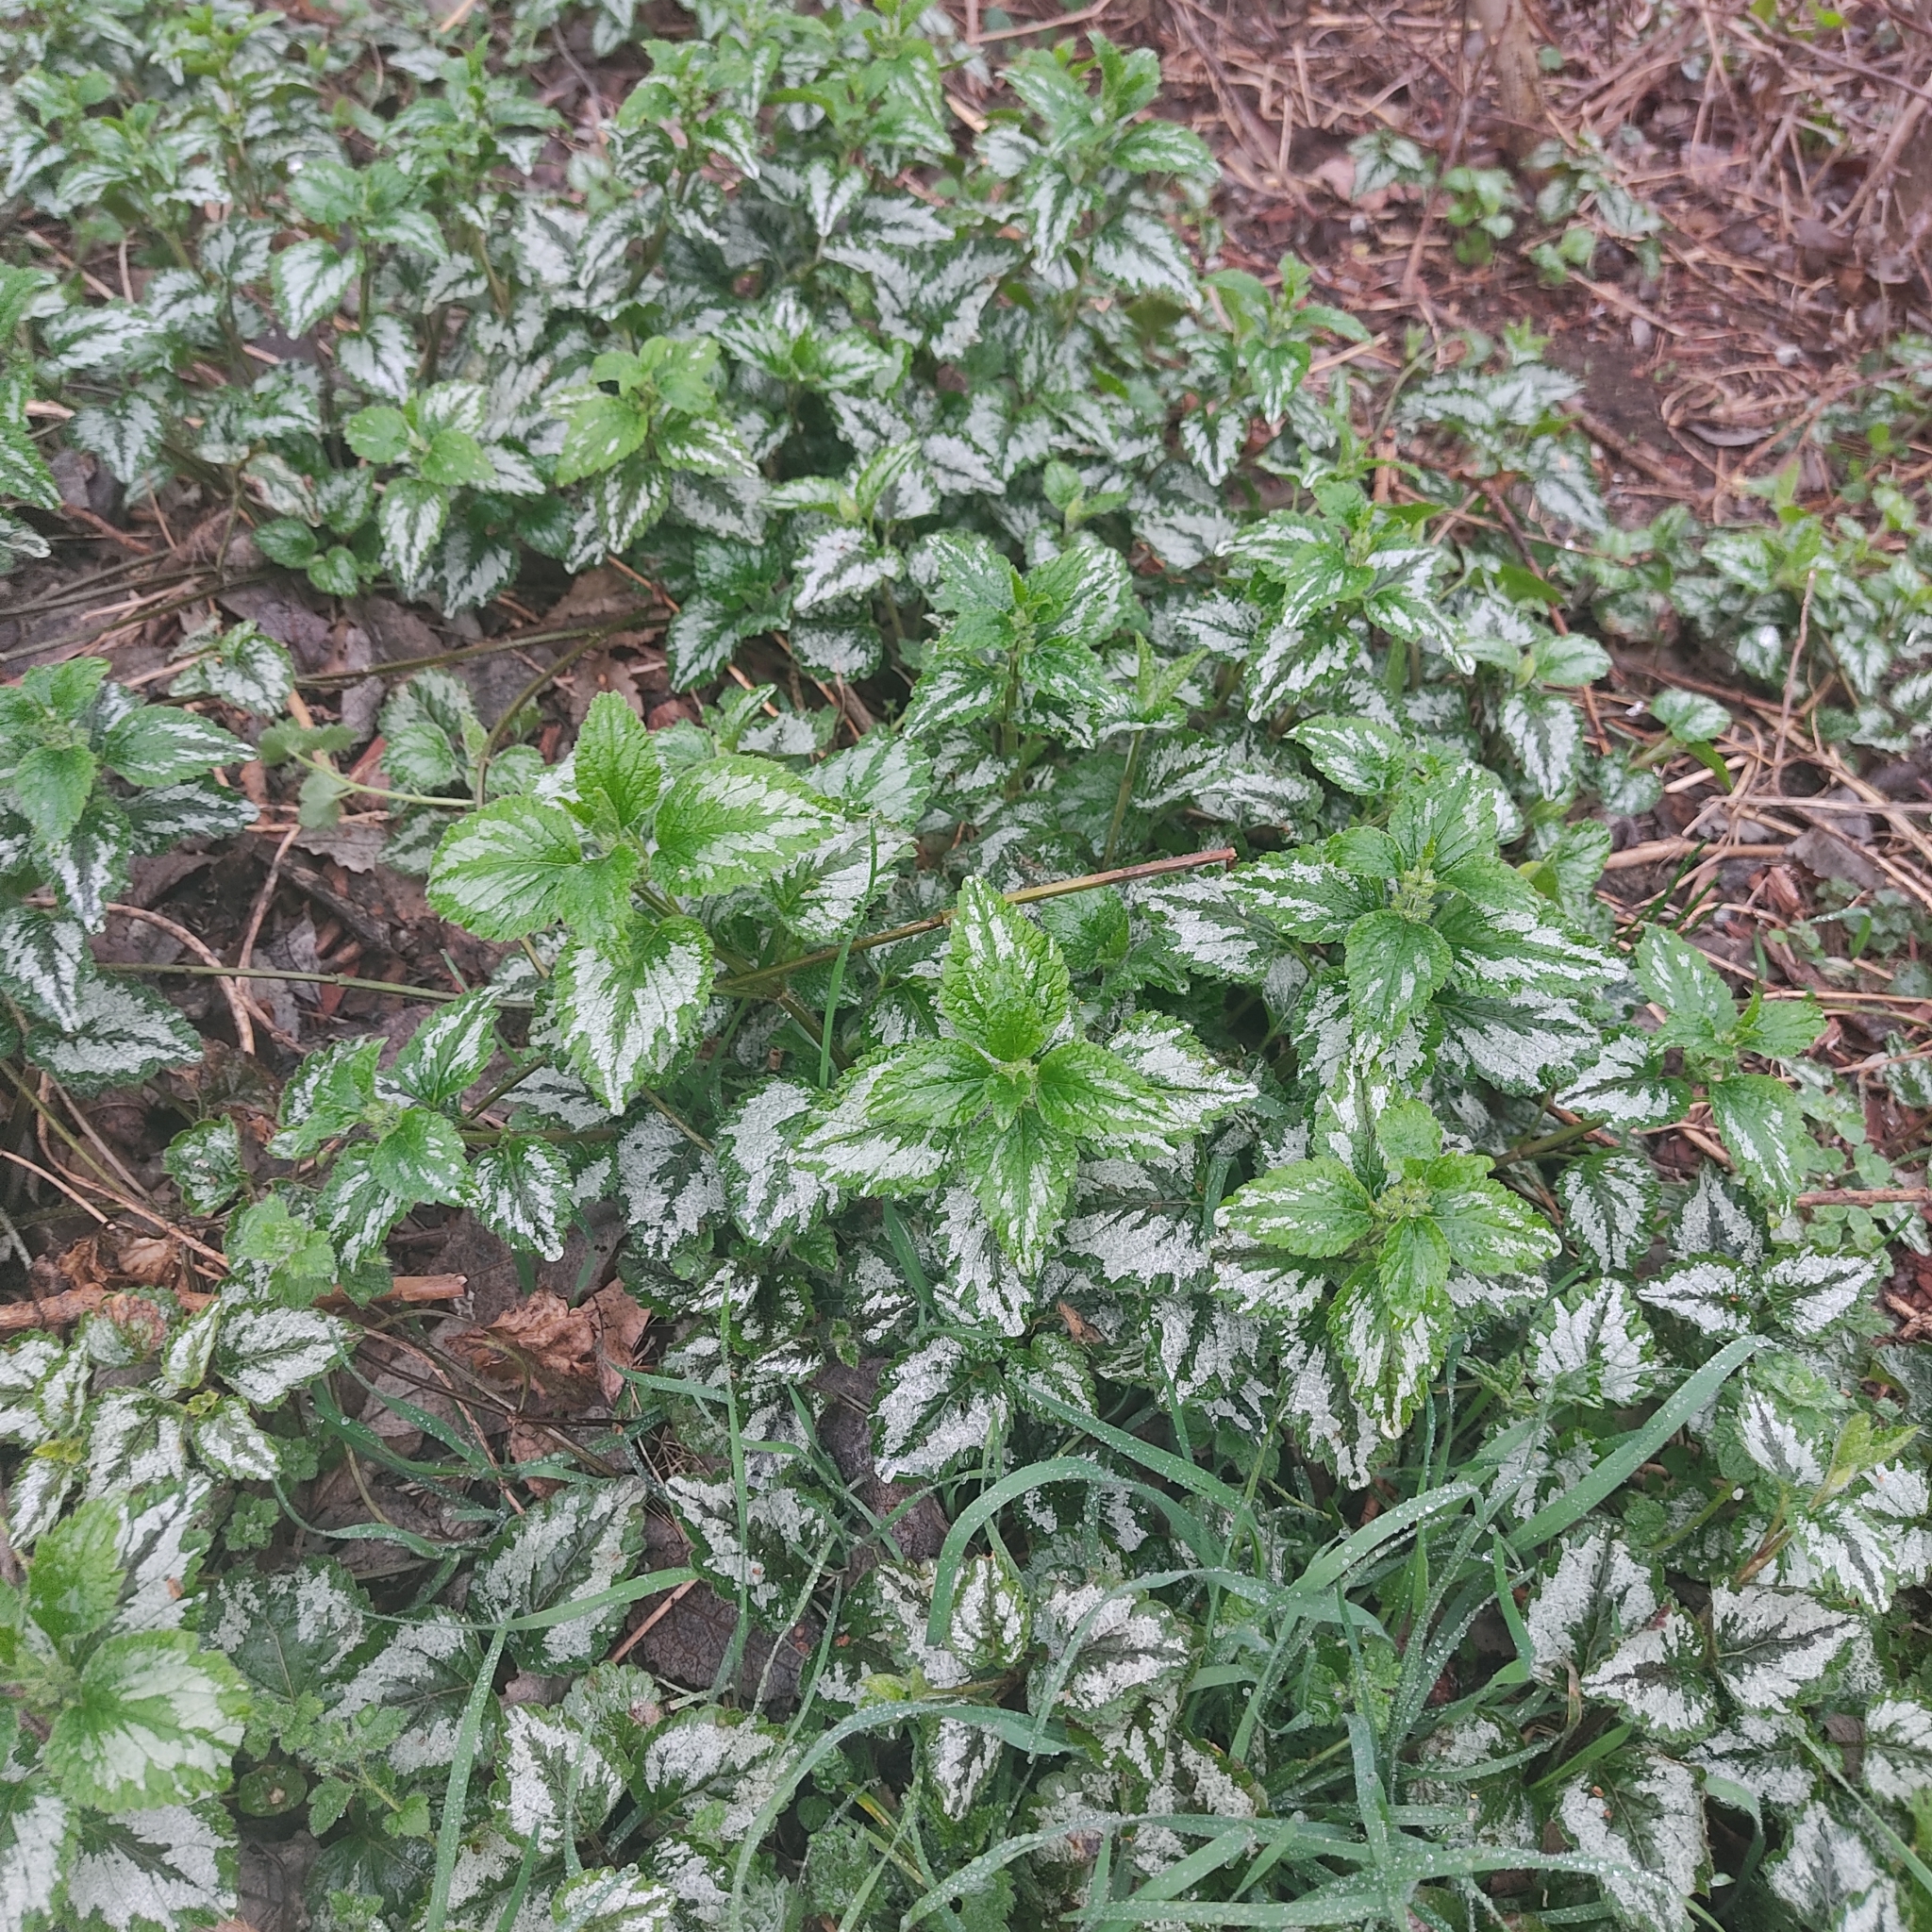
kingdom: Plantae
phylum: Tracheophyta
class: Magnoliopsida
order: Lamiales
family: Lamiaceae
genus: Lamium
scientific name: Lamium galeobdolon
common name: Yellow archangel
